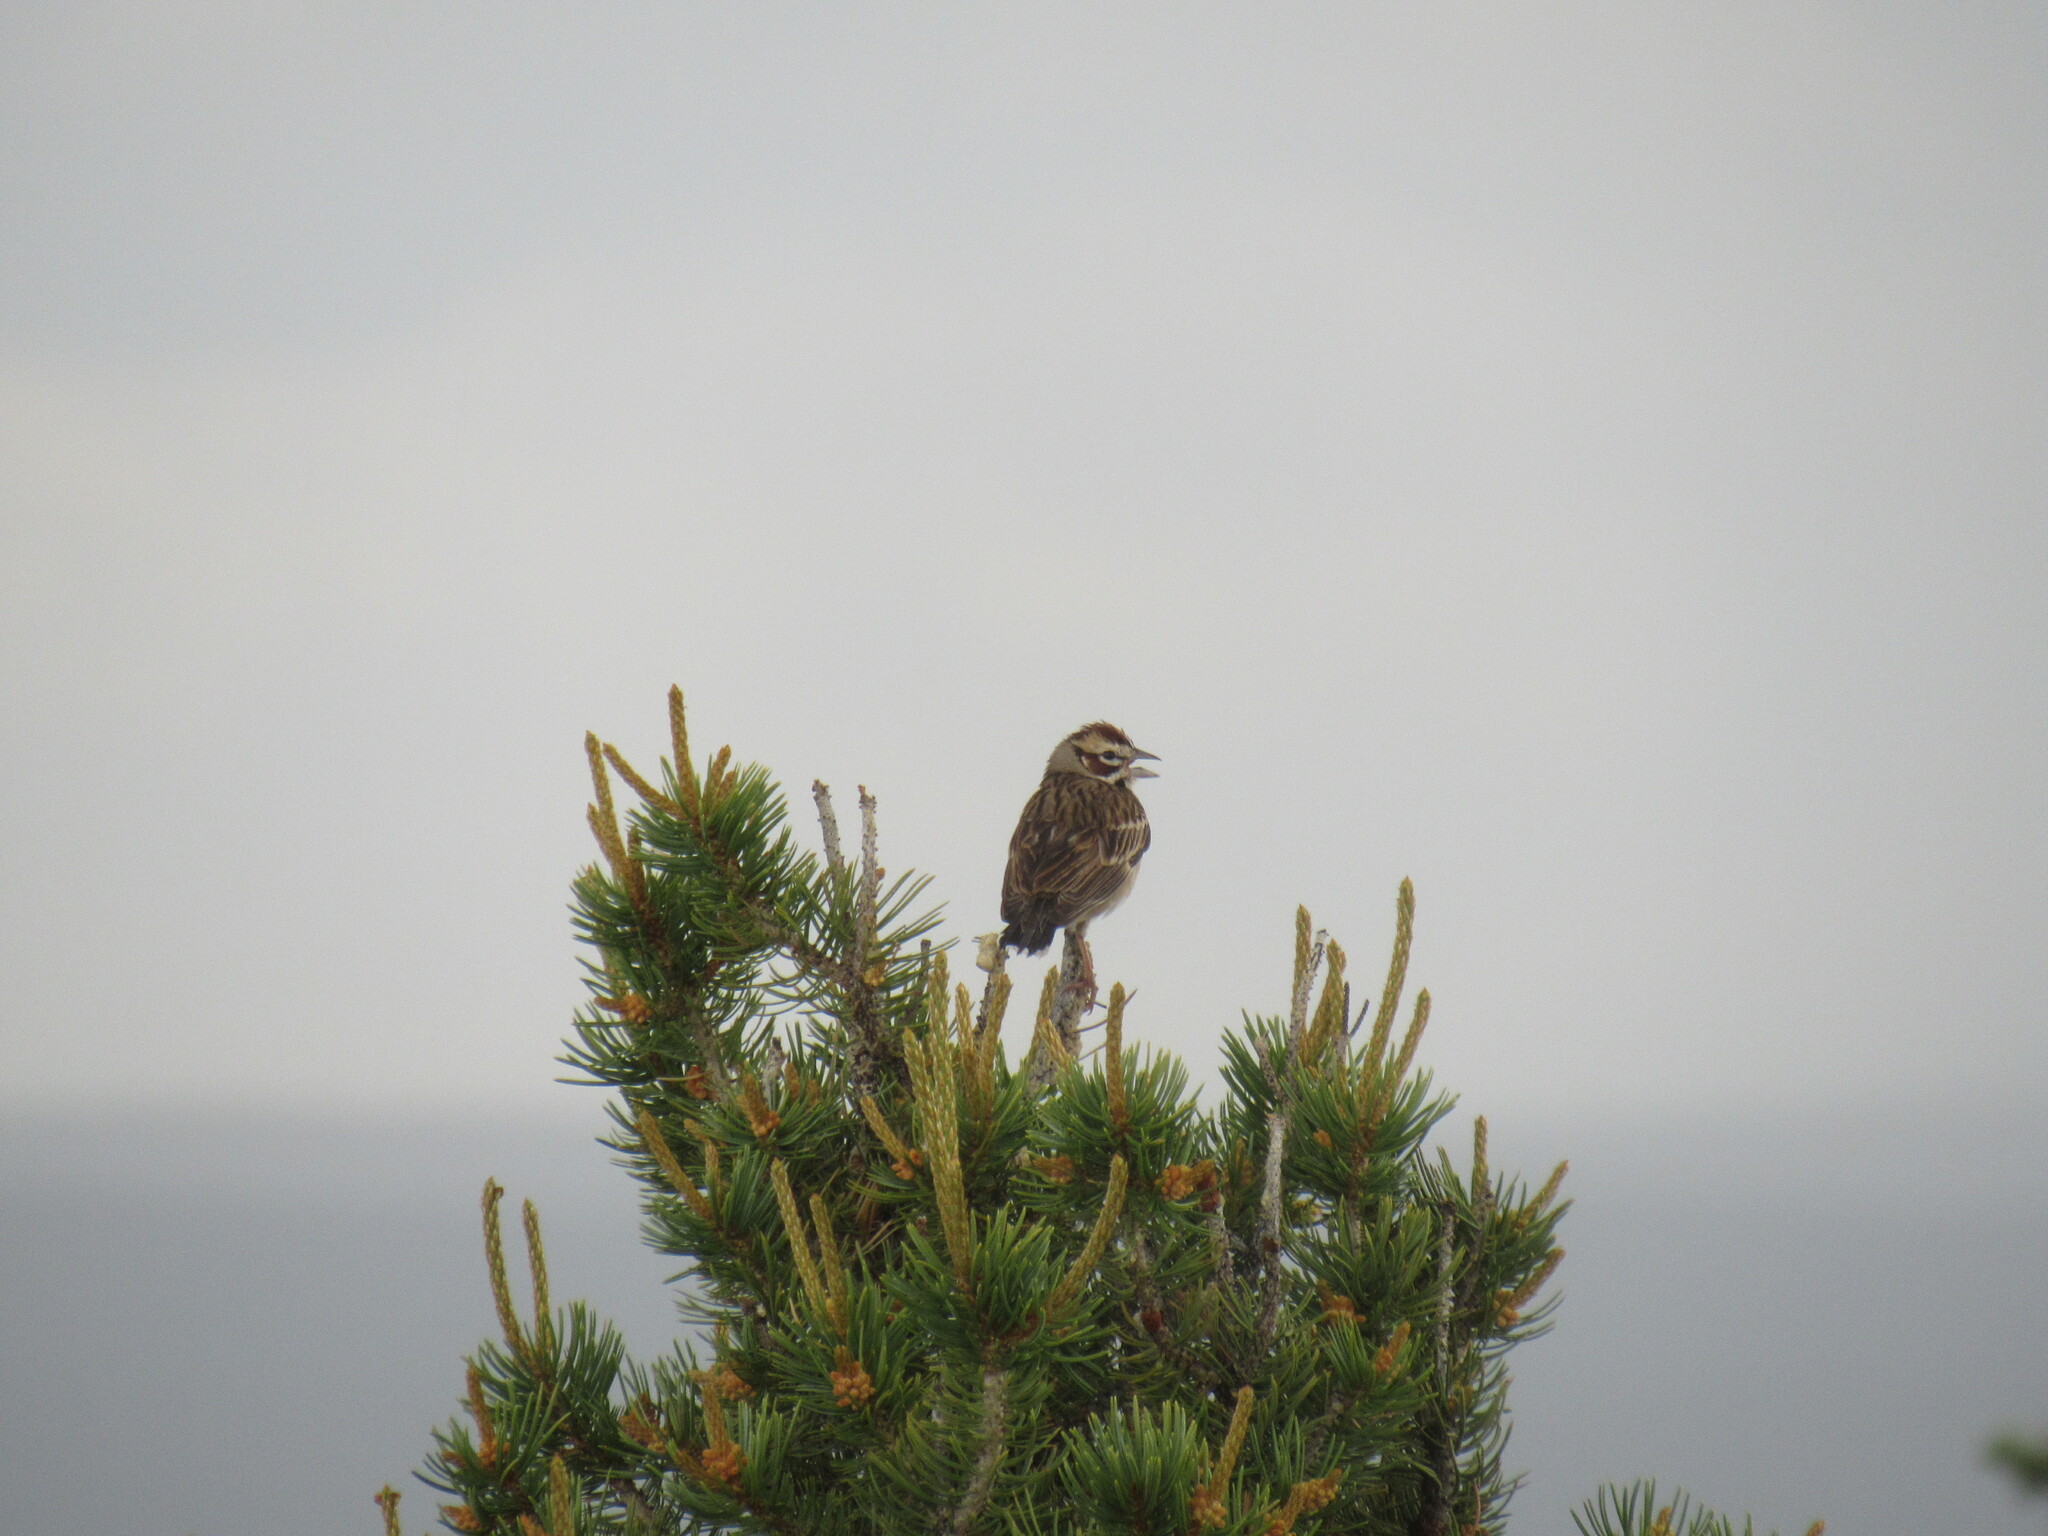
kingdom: Animalia
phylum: Chordata
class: Aves
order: Passeriformes
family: Passerellidae
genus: Chondestes
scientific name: Chondestes grammacus
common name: Lark sparrow
